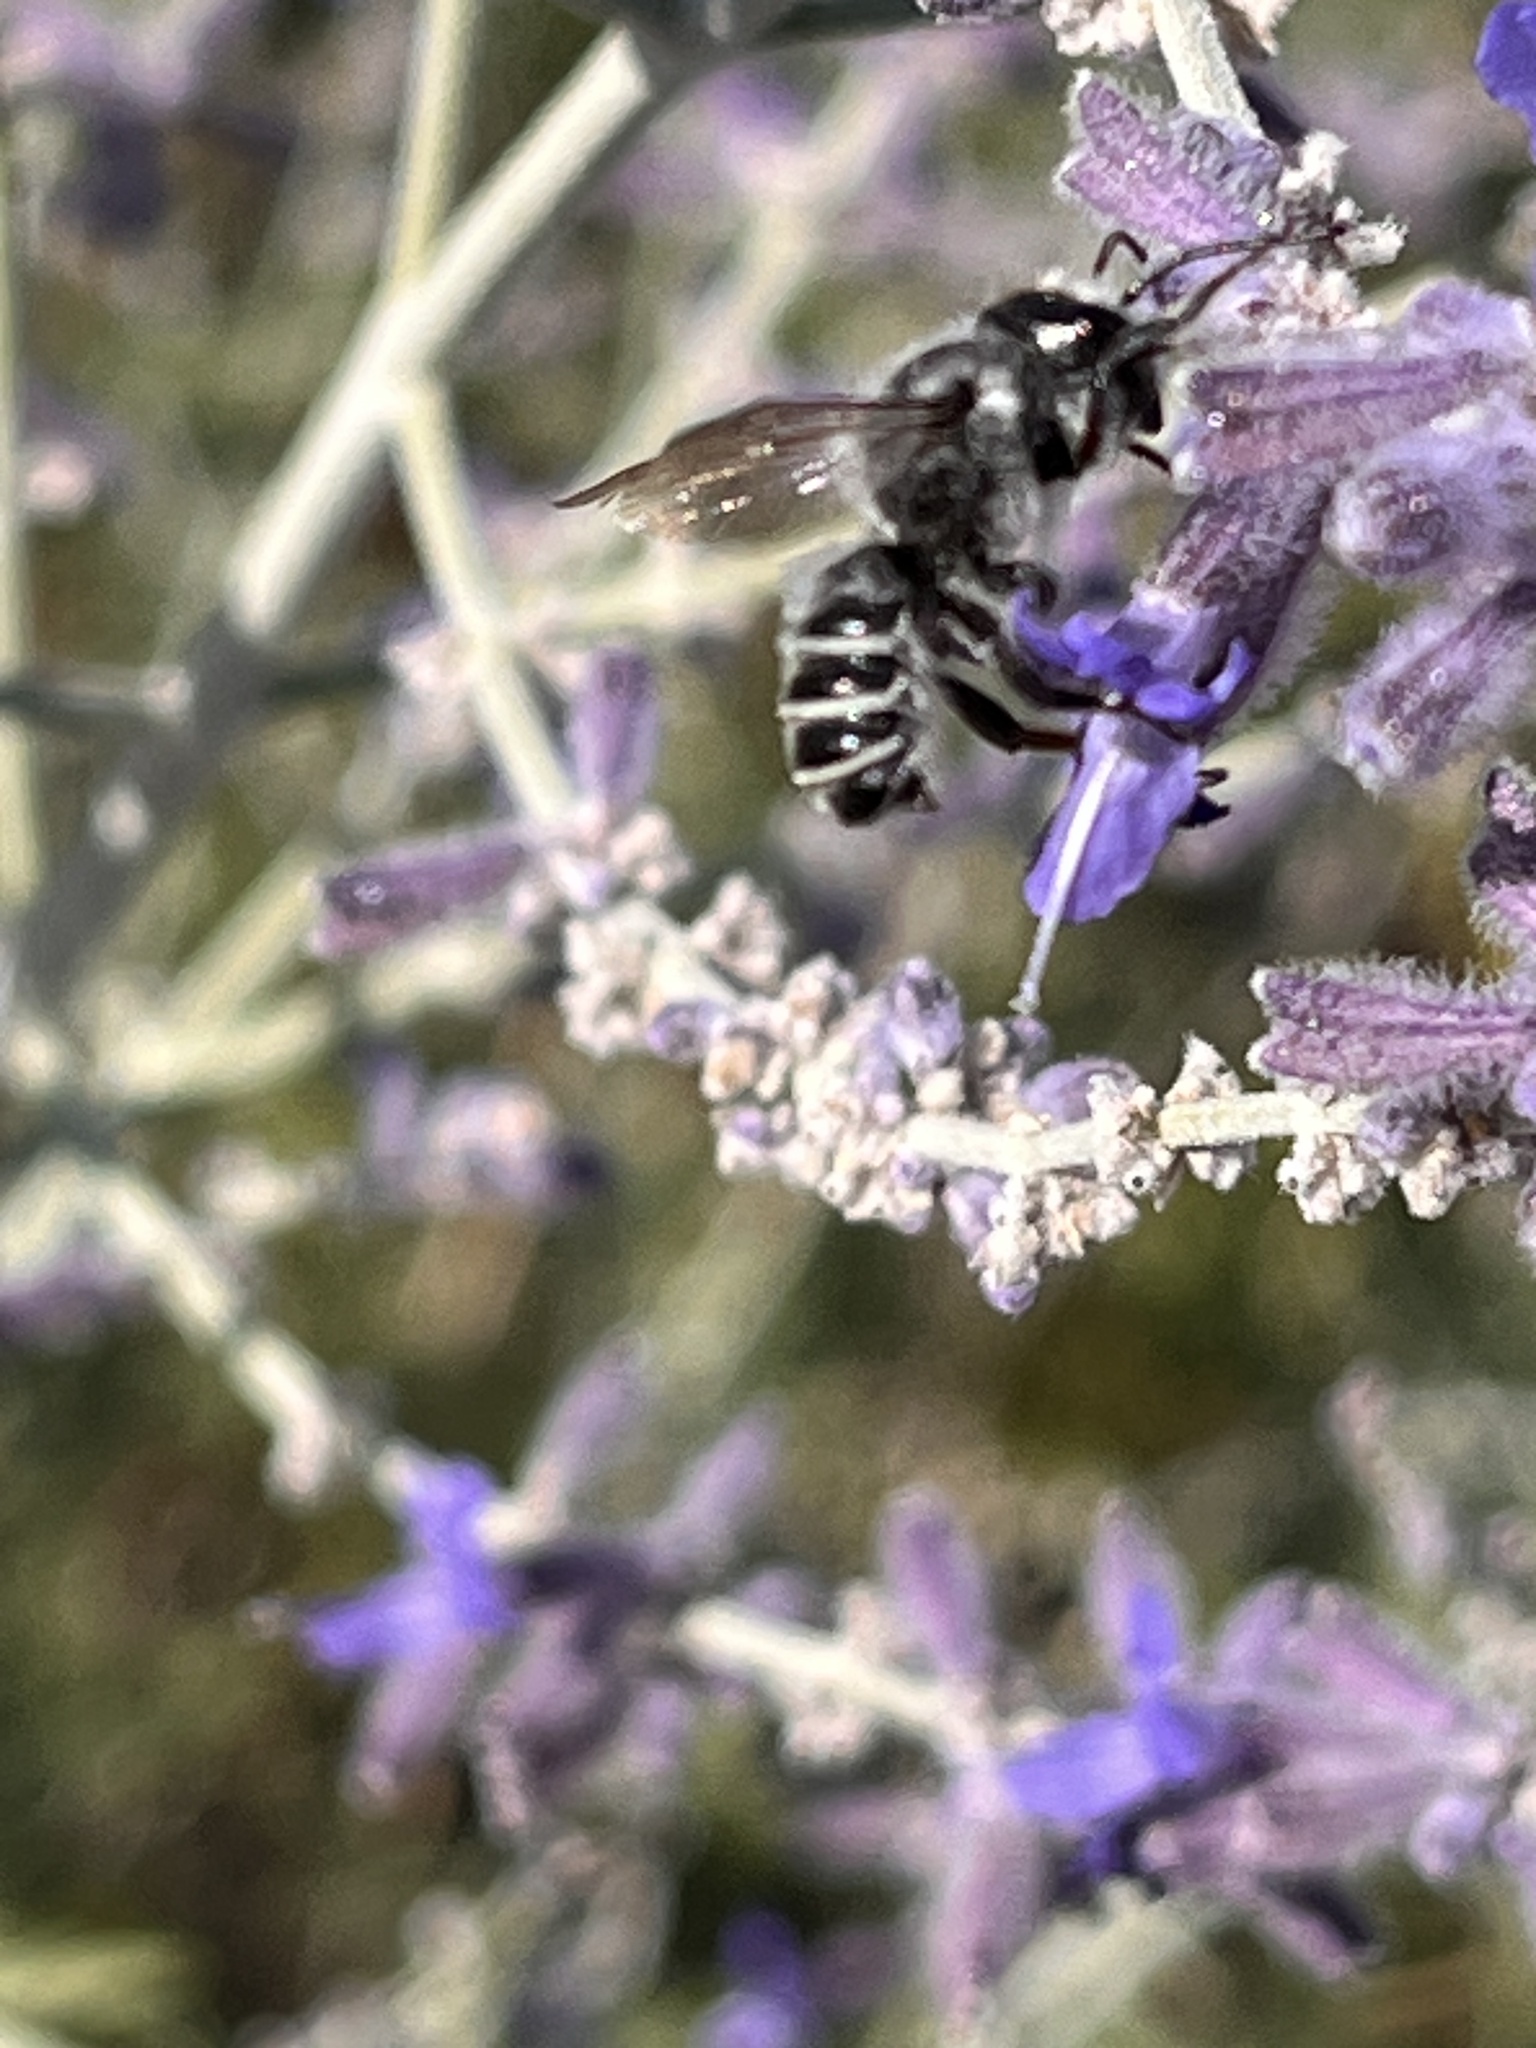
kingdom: Animalia
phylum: Arthropoda
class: Insecta
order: Hymenoptera
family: Megachilidae
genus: Megachile
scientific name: Megachile
